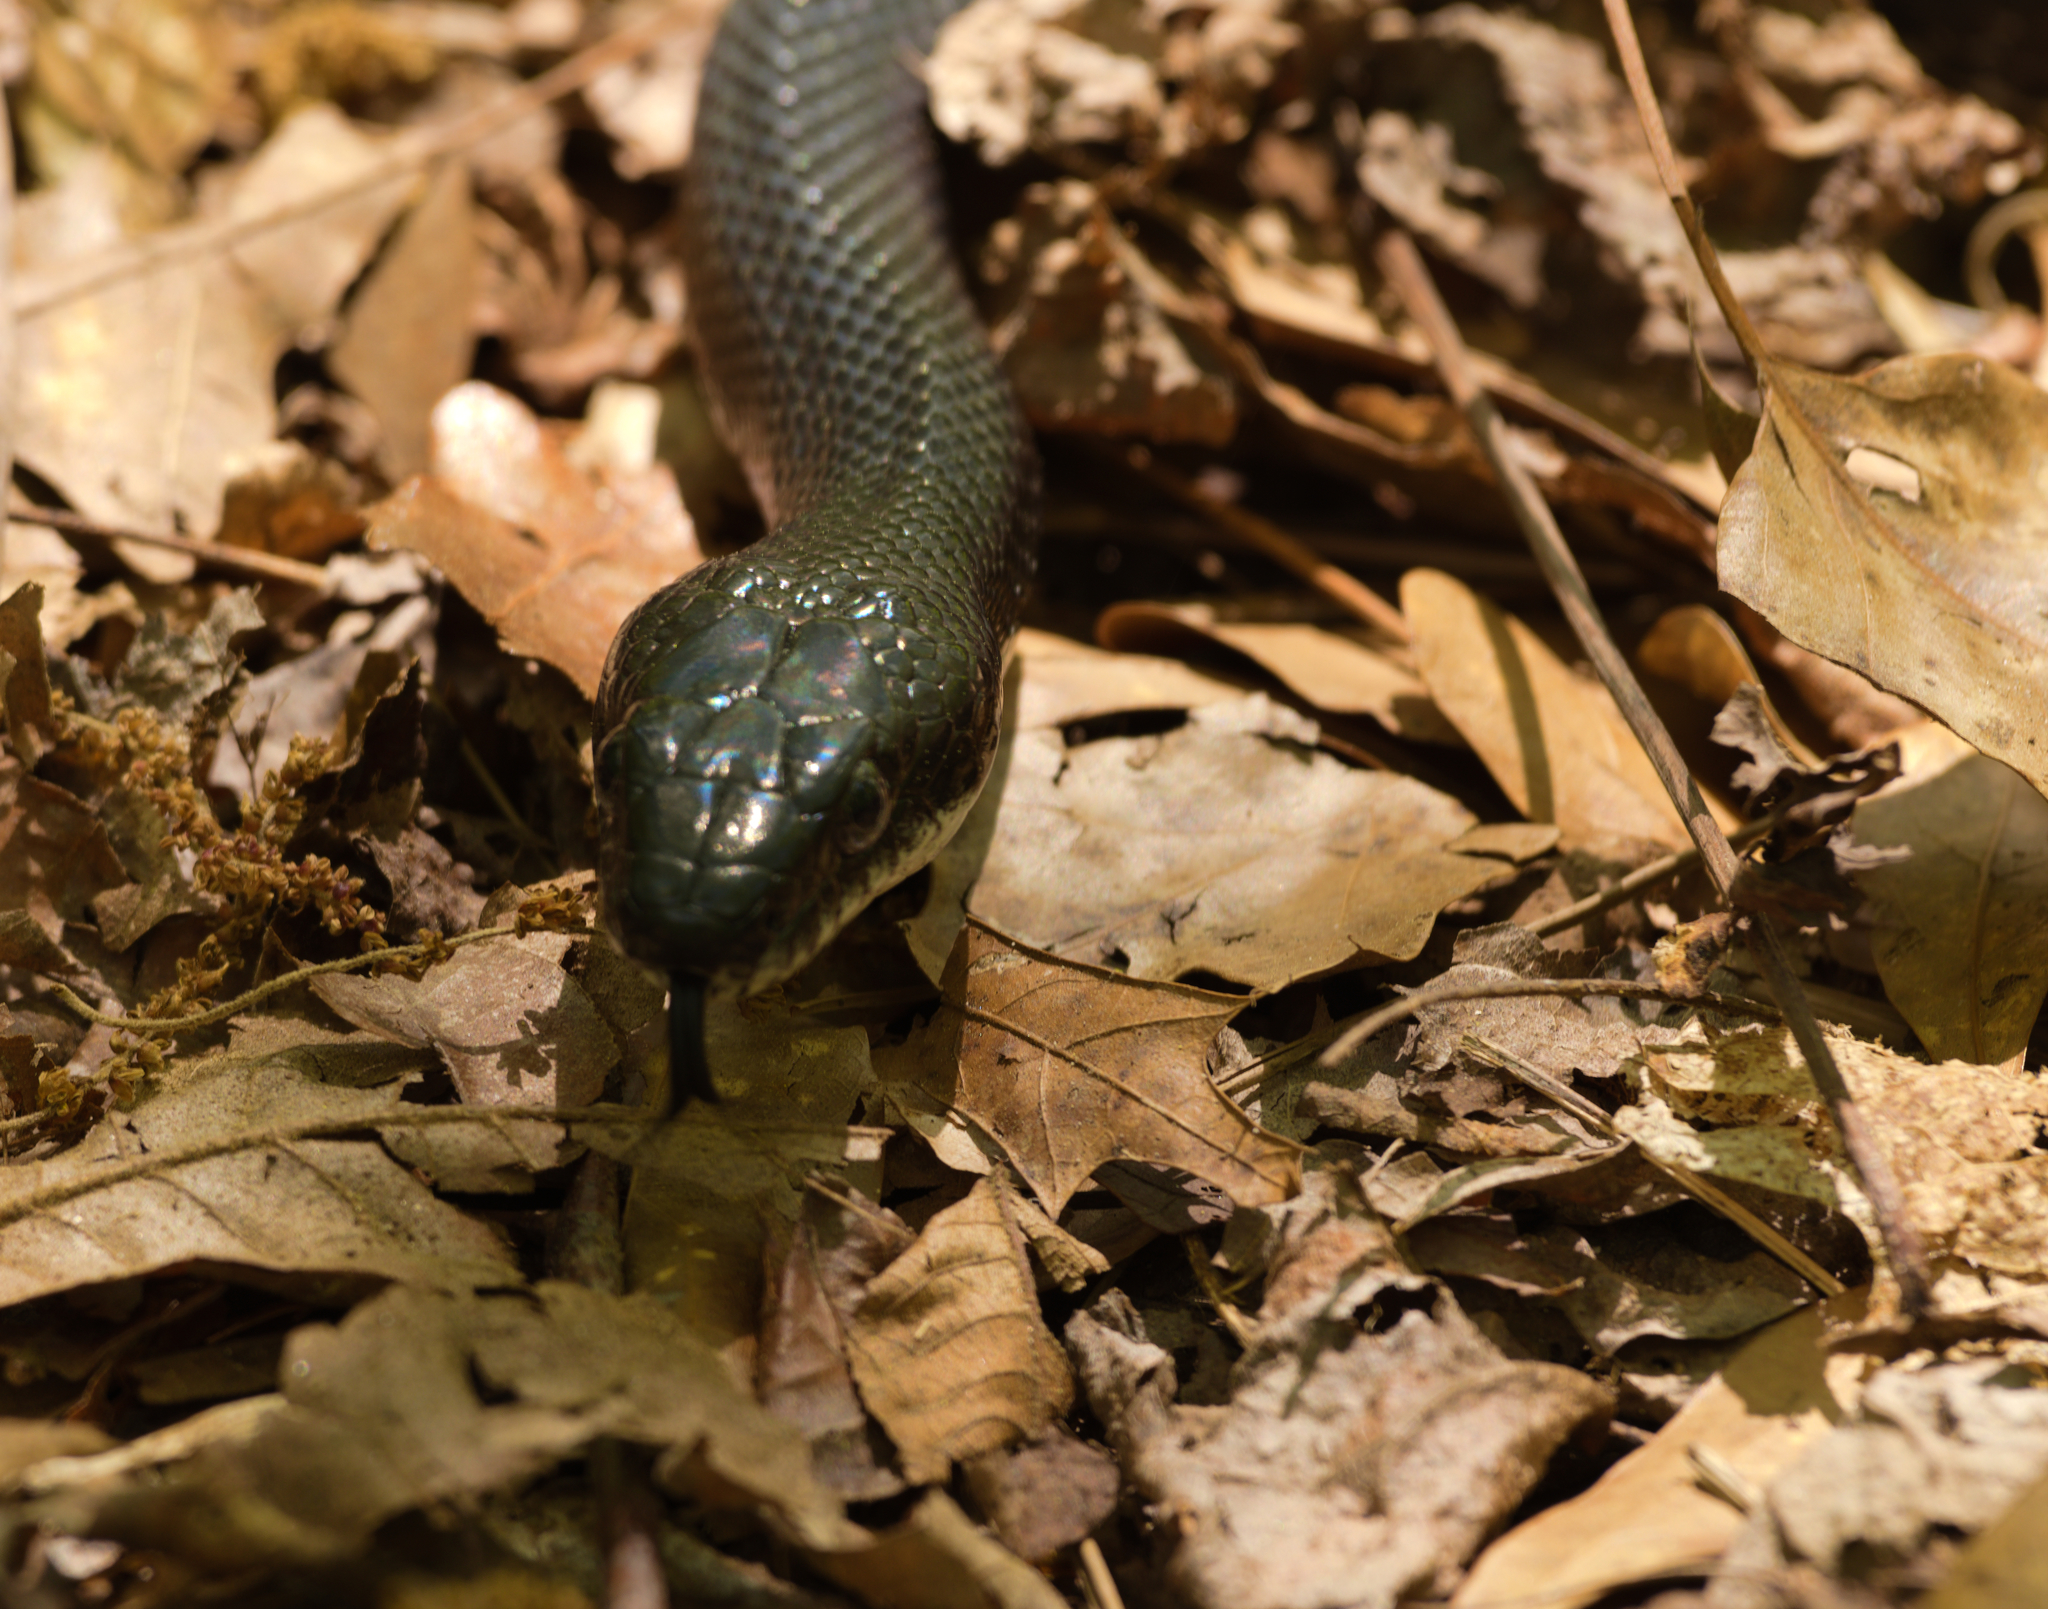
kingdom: Animalia
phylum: Chordata
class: Squamata
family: Colubridae
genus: Pantherophis
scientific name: Pantherophis alleghaniensis
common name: Eastern rat snake
